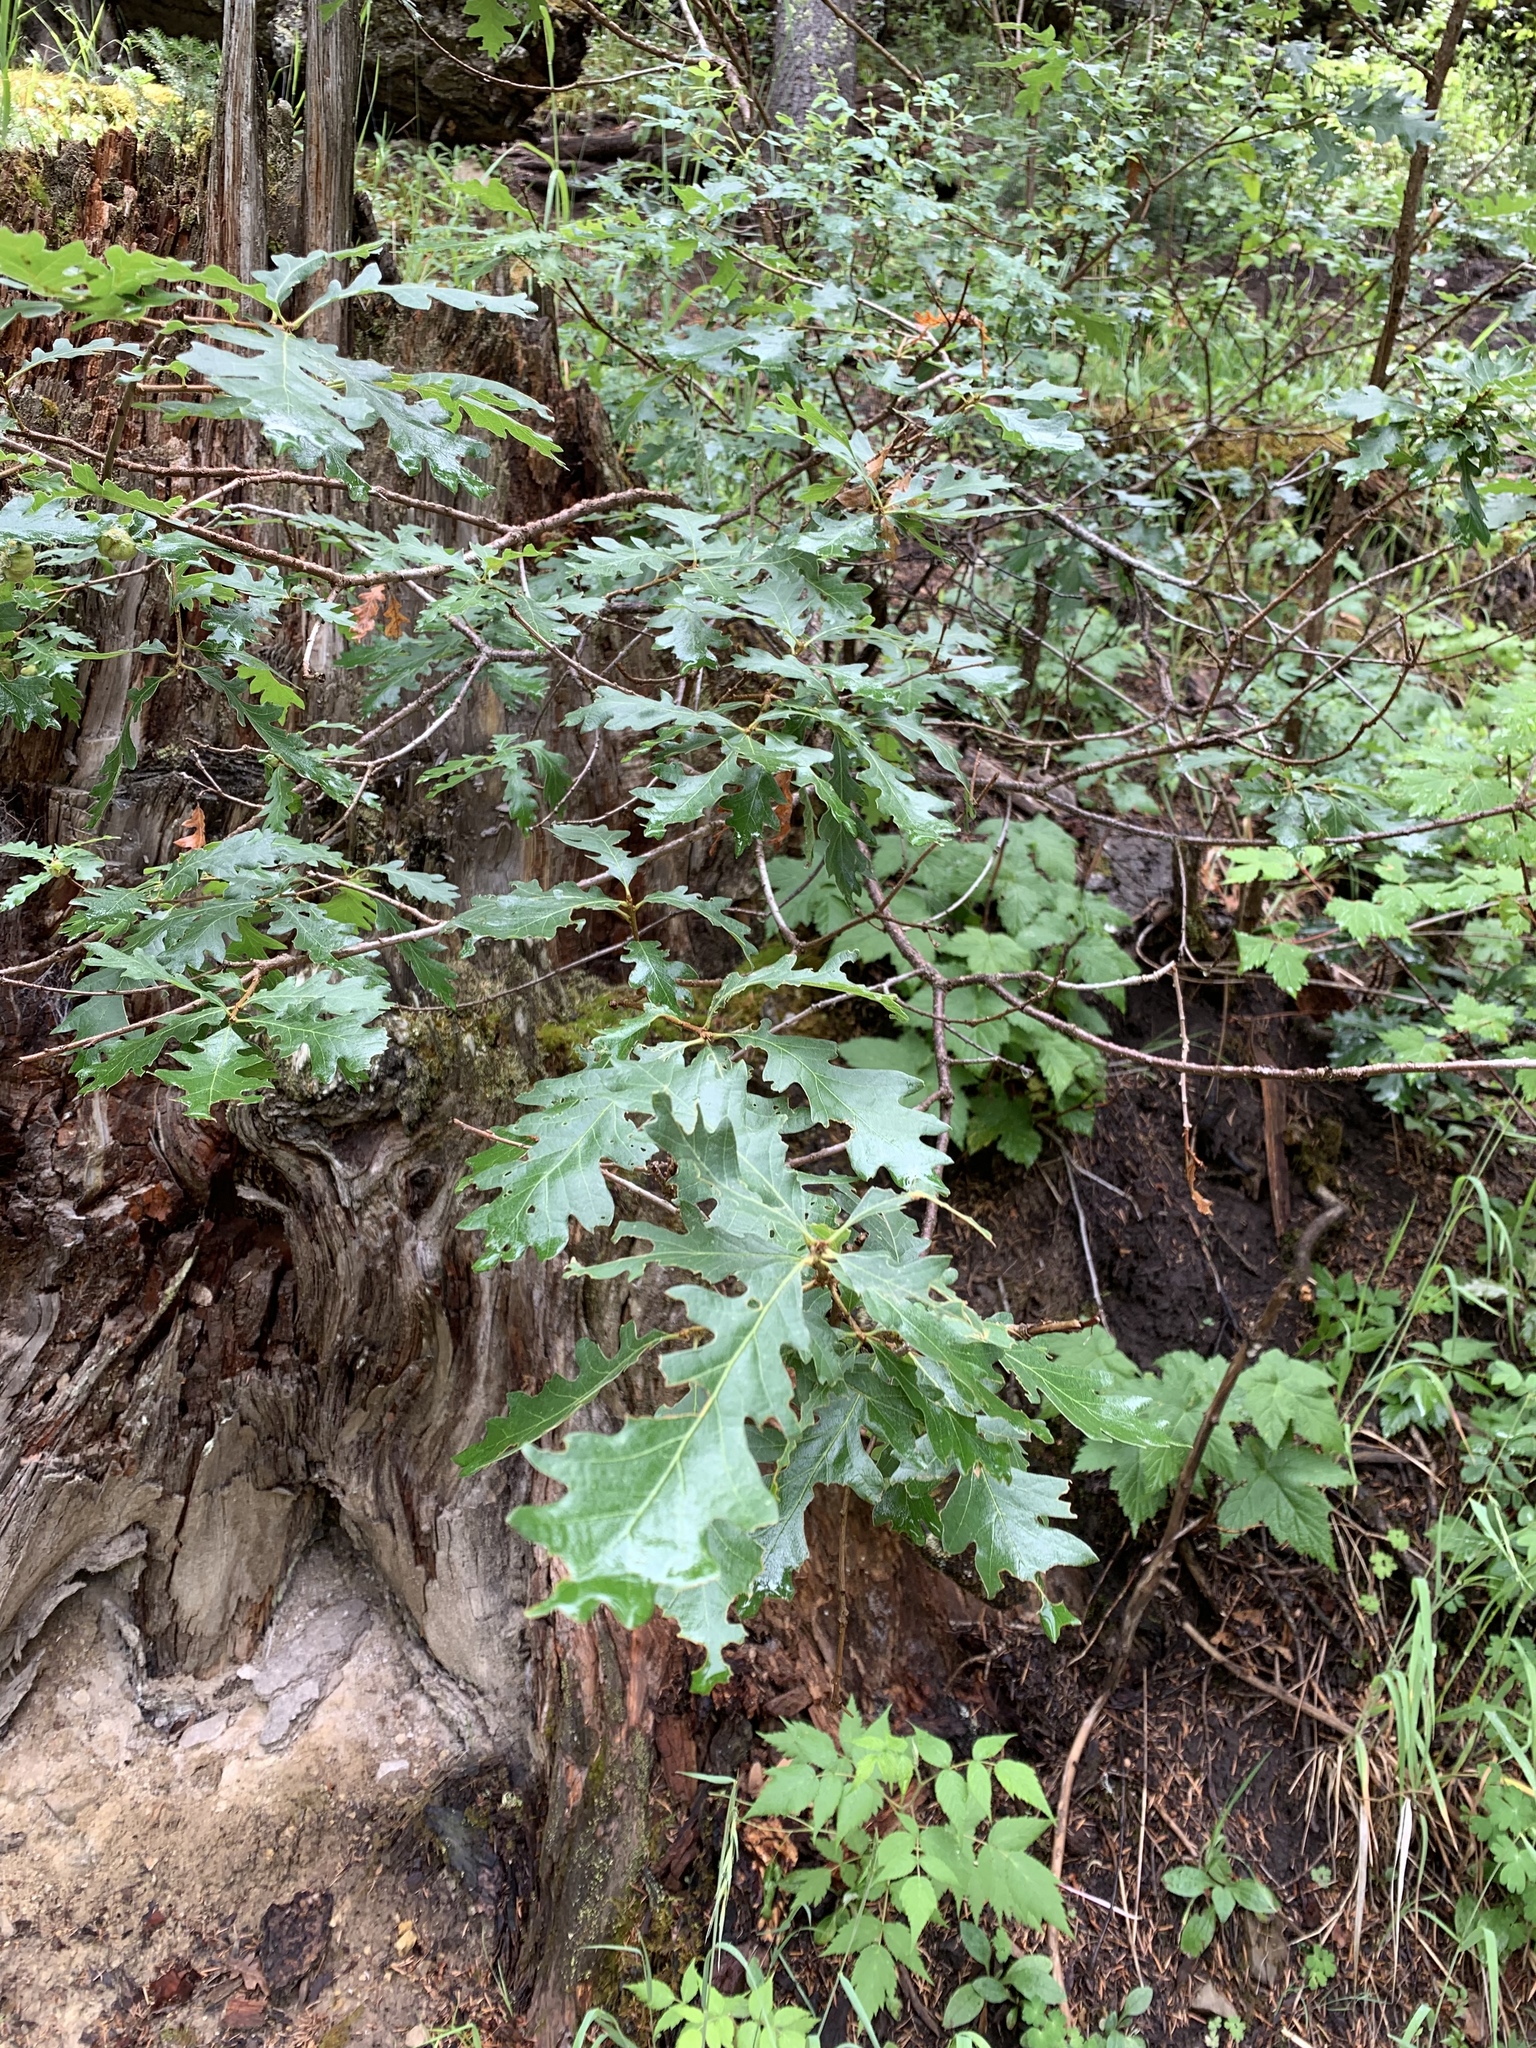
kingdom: Plantae
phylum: Tracheophyta
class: Magnoliopsida
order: Fagales
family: Fagaceae
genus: Quercus
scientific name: Quercus gambelii
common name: Gambel oak
